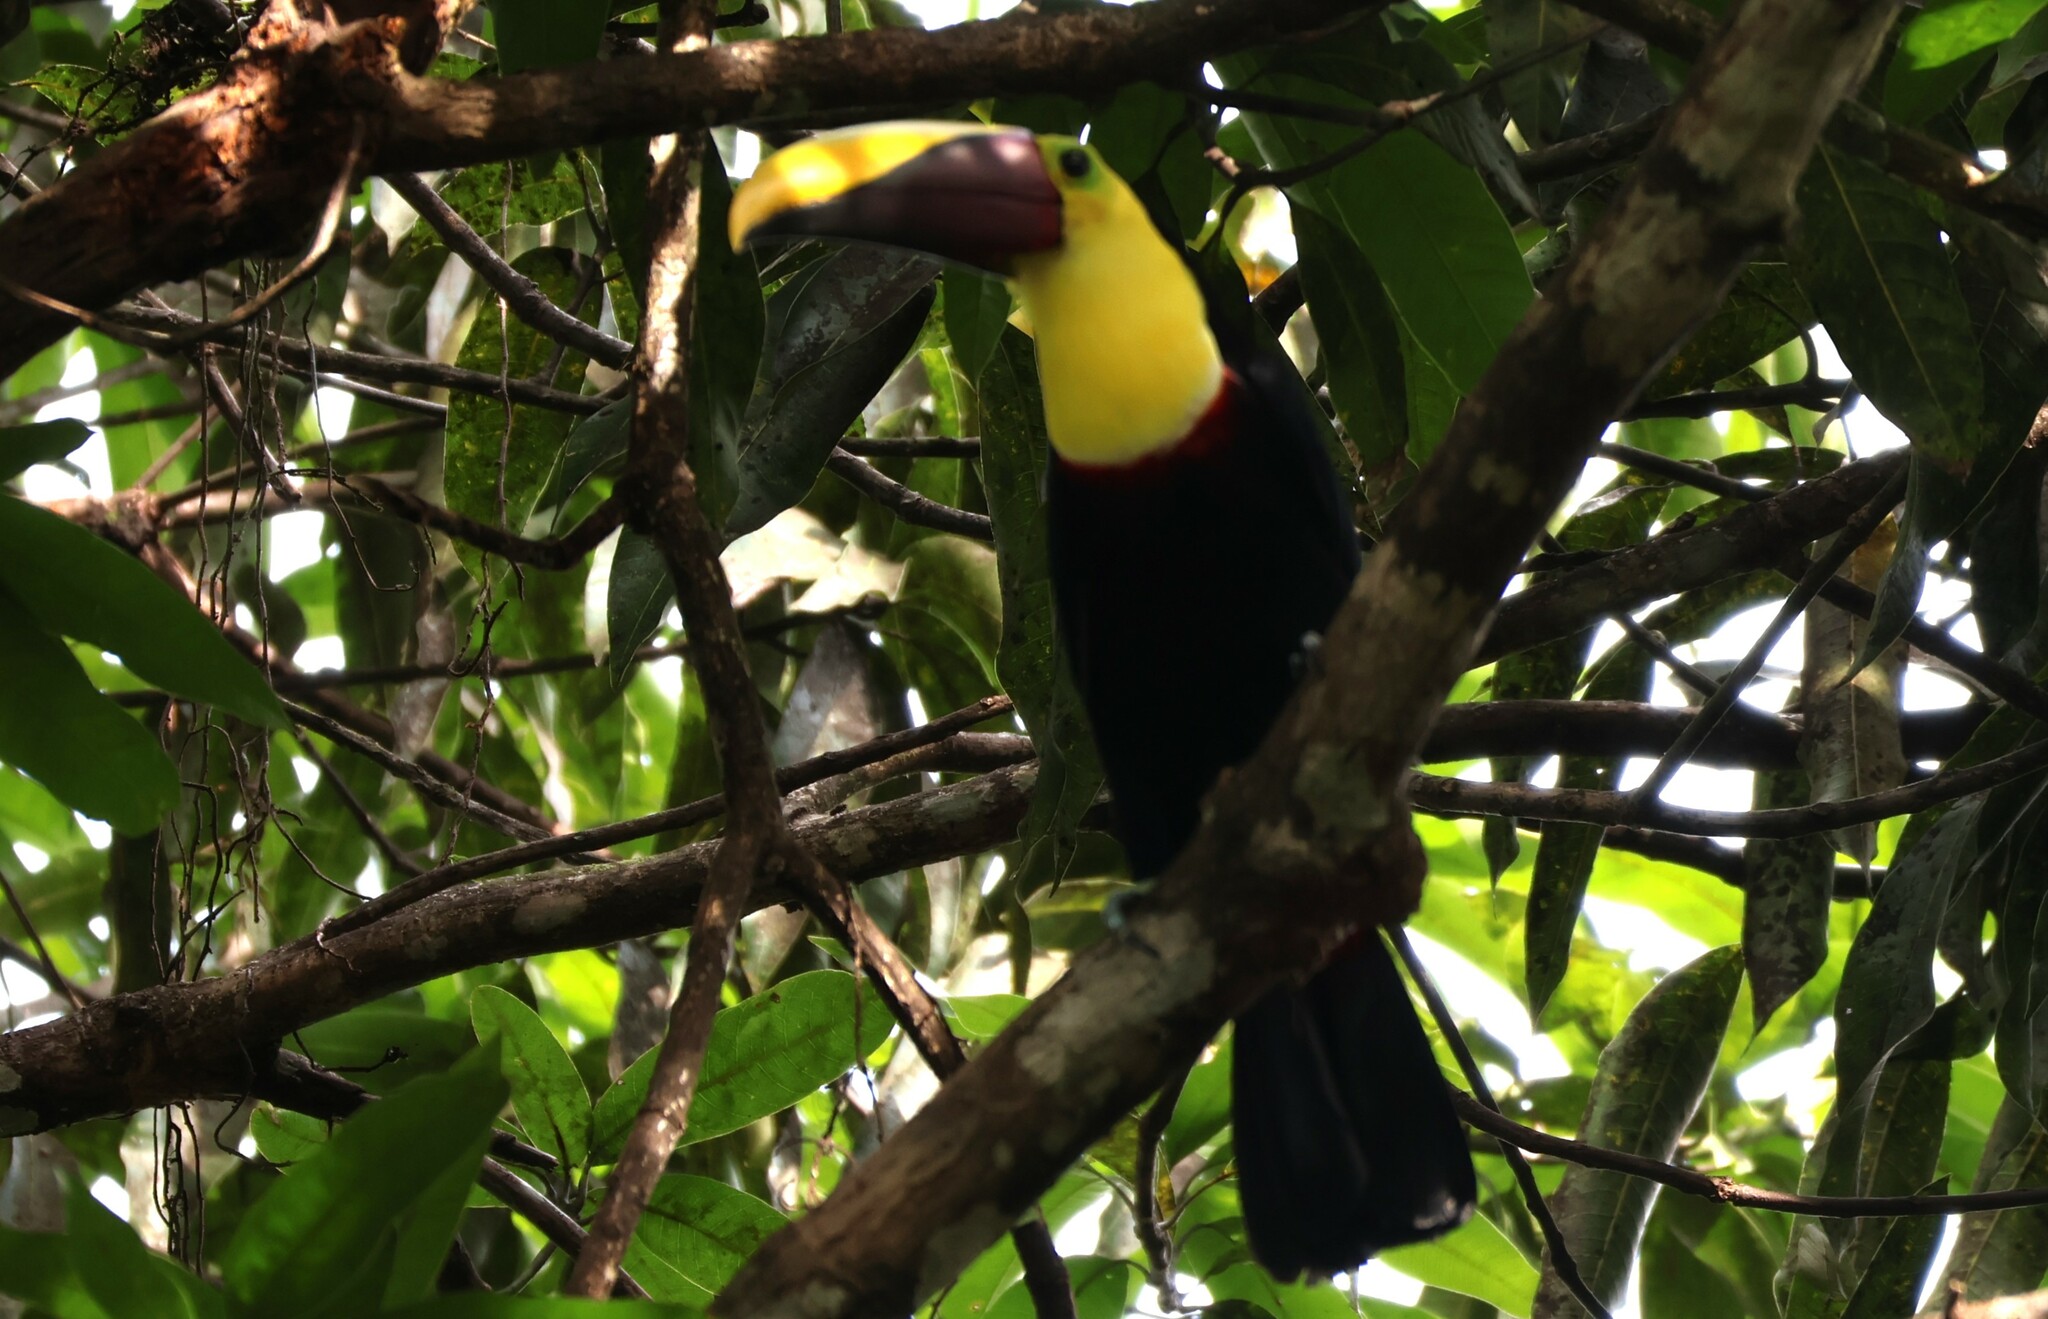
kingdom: Animalia
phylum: Chordata
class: Aves
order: Piciformes
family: Ramphastidae
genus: Ramphastos
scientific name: Ramphastos ambiguus
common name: Yellow-throated toucan
